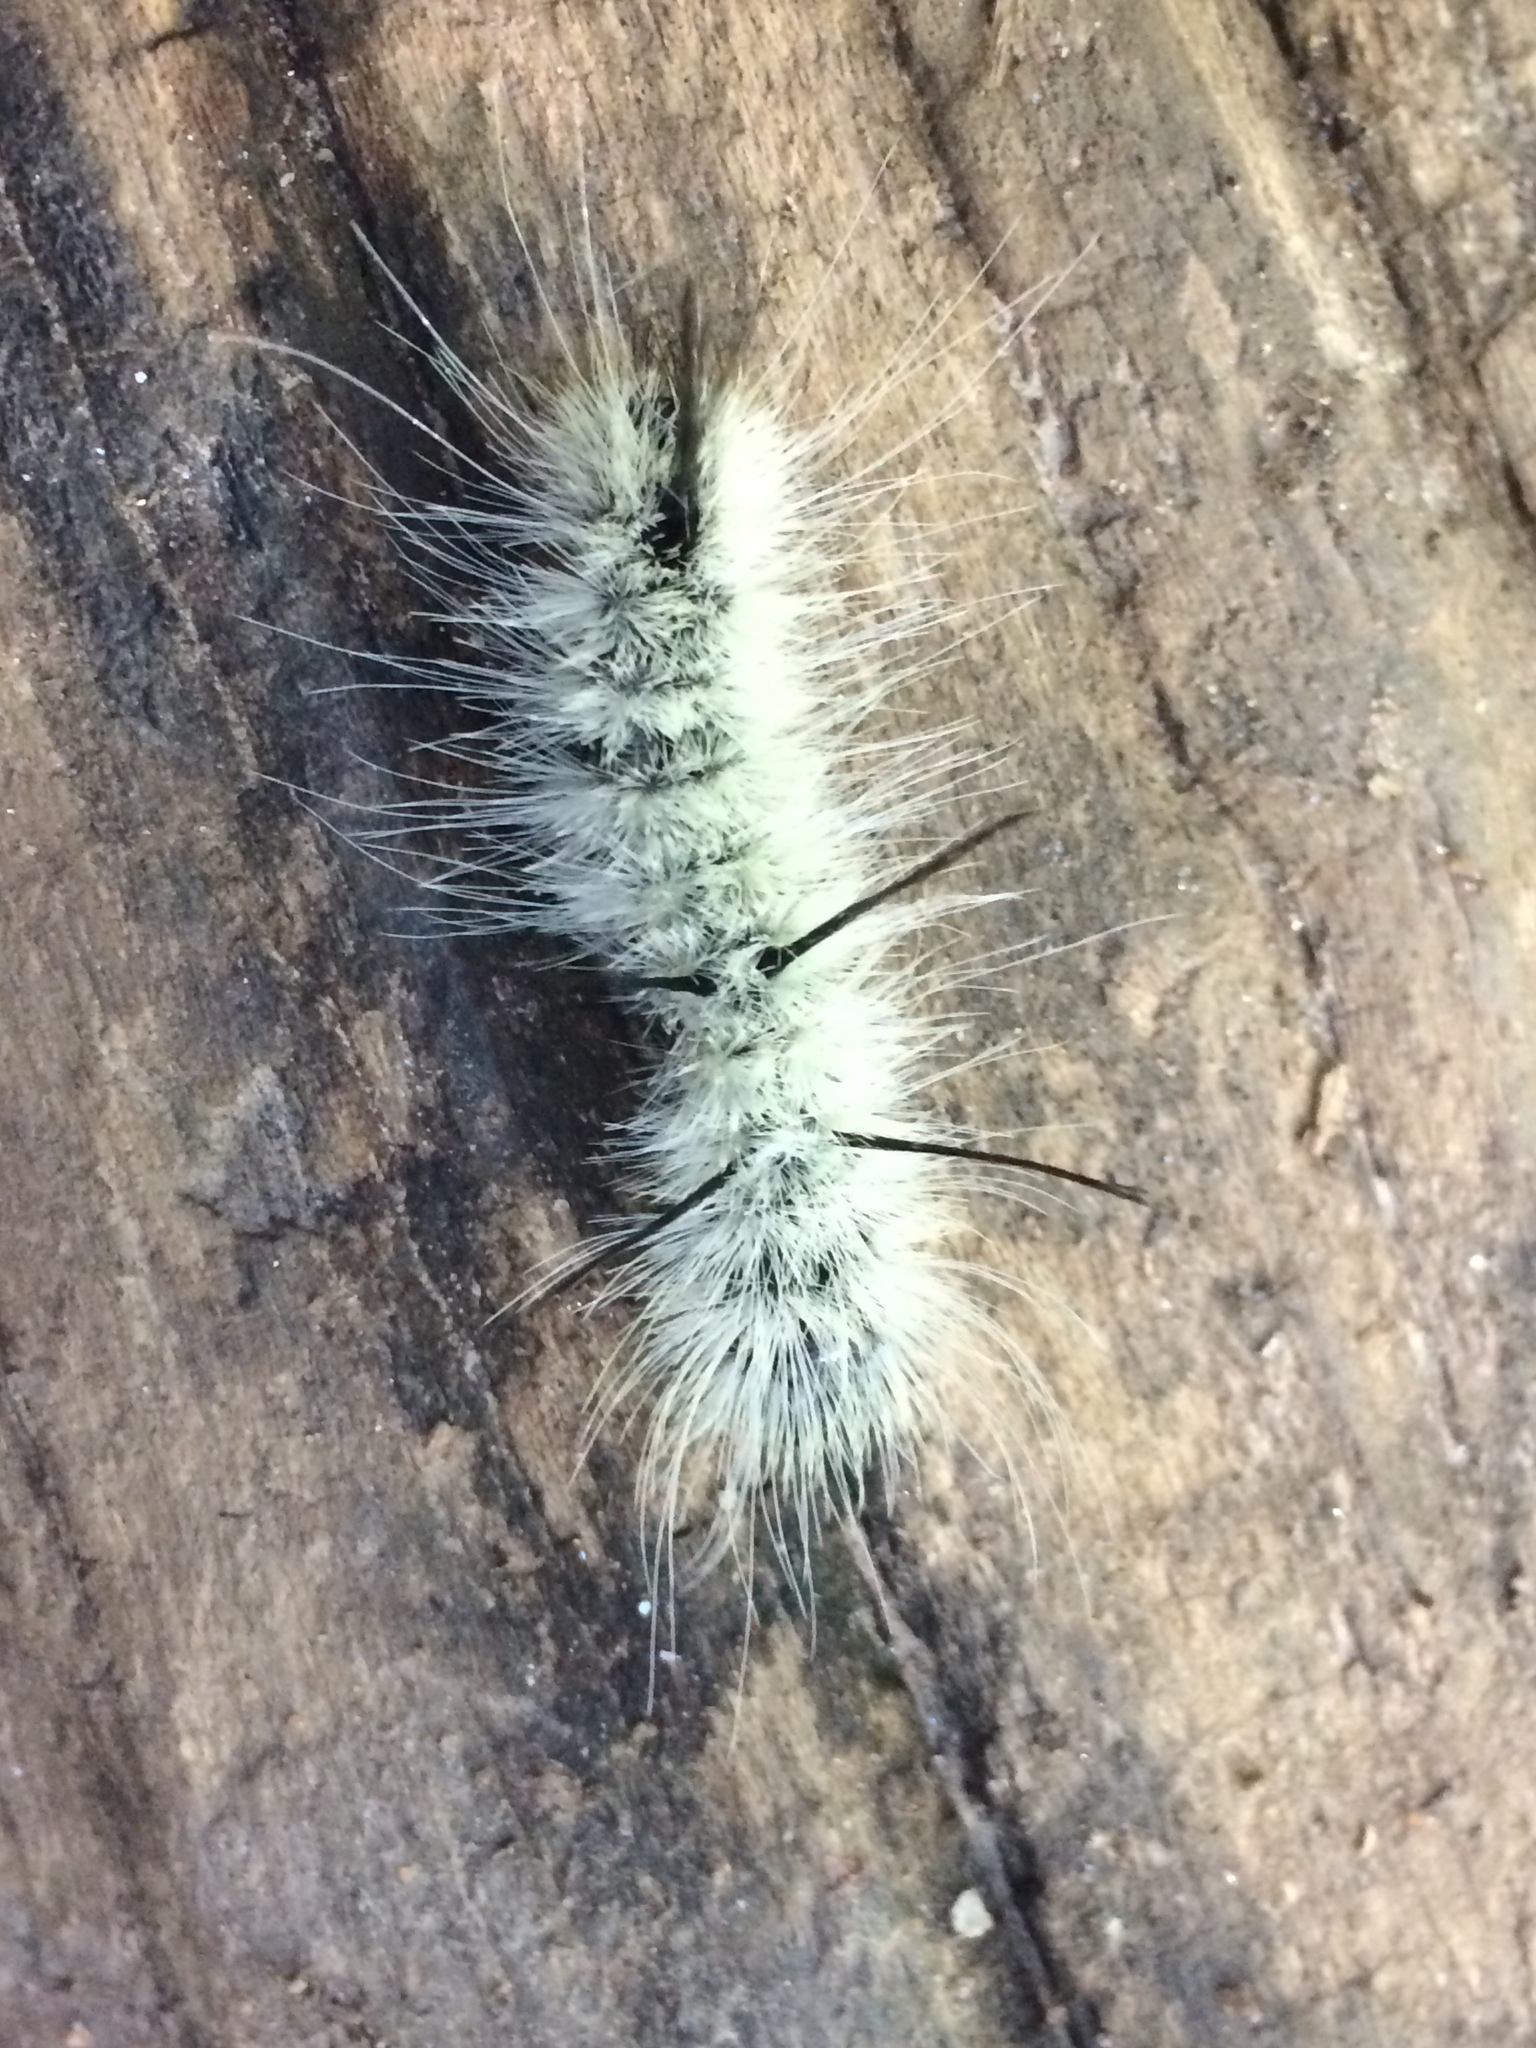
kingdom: Animalia
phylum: Arthropoda
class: Insecta
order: Lepidoptera
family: Noctuidae
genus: Acronicta
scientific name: Acronicta americana
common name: American dagger
